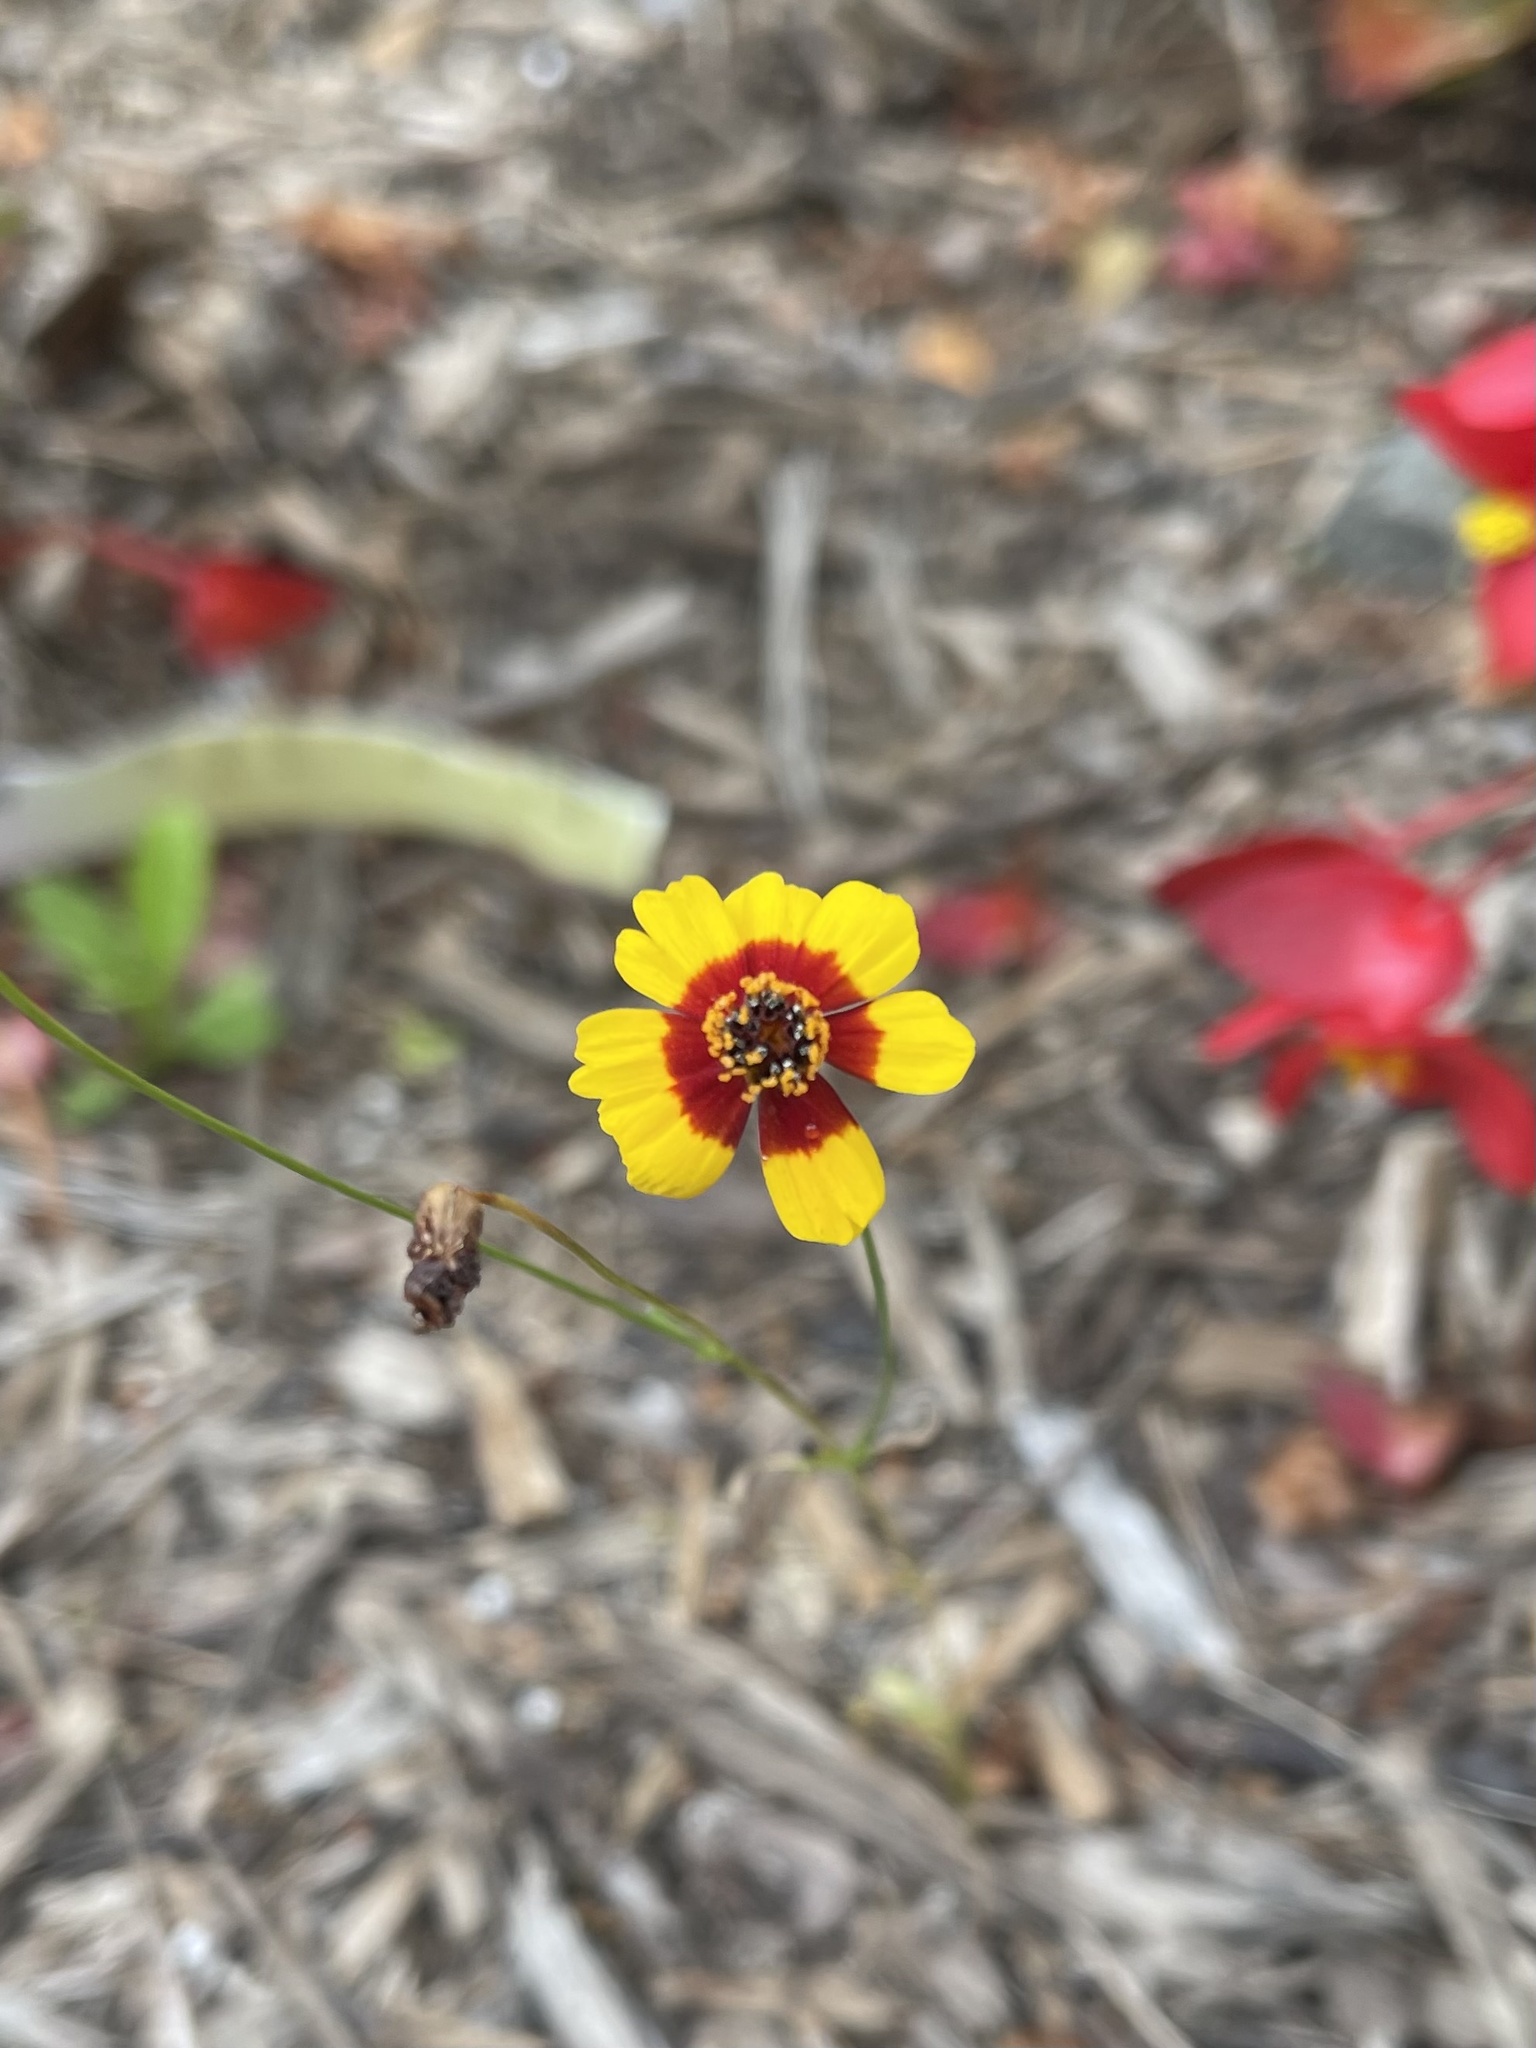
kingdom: Plantae
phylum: Tracheophyta
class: Magnoliopsida
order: Asterales
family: Asteraceae
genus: Coreopsis
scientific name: Coreopsis tinctoria
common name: Garden tickseed
